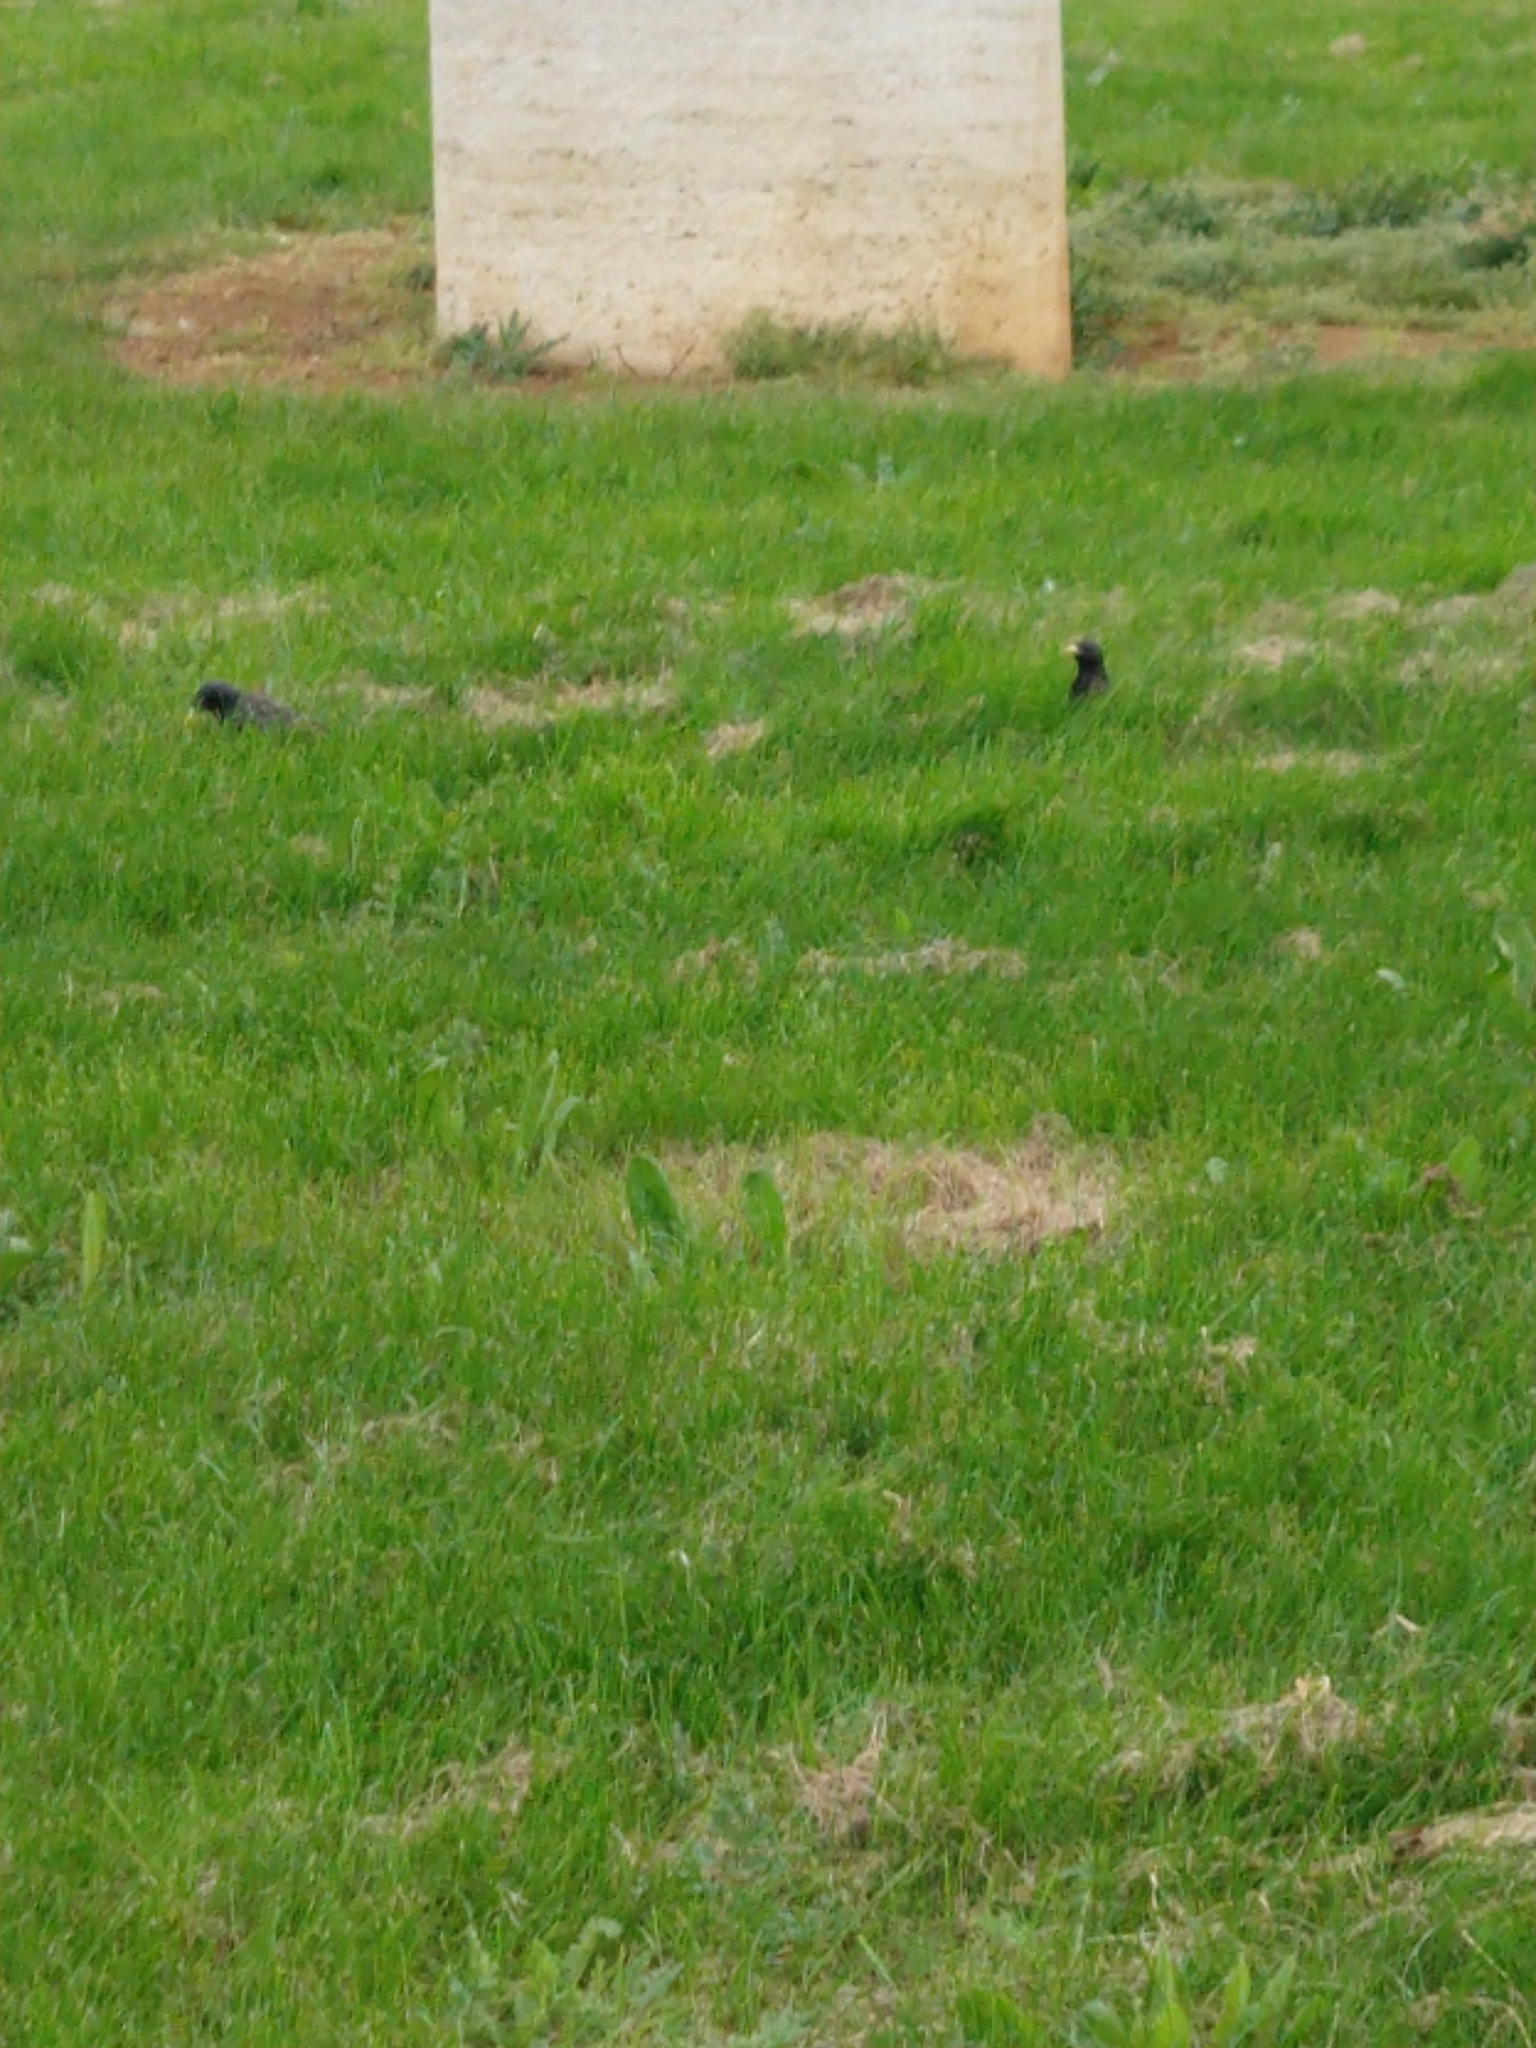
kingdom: Animalia
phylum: Chordata
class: Aves
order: Passeriformes
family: Sturnidae
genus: Sturnus
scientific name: Sturnus vulgaris
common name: Common starling
